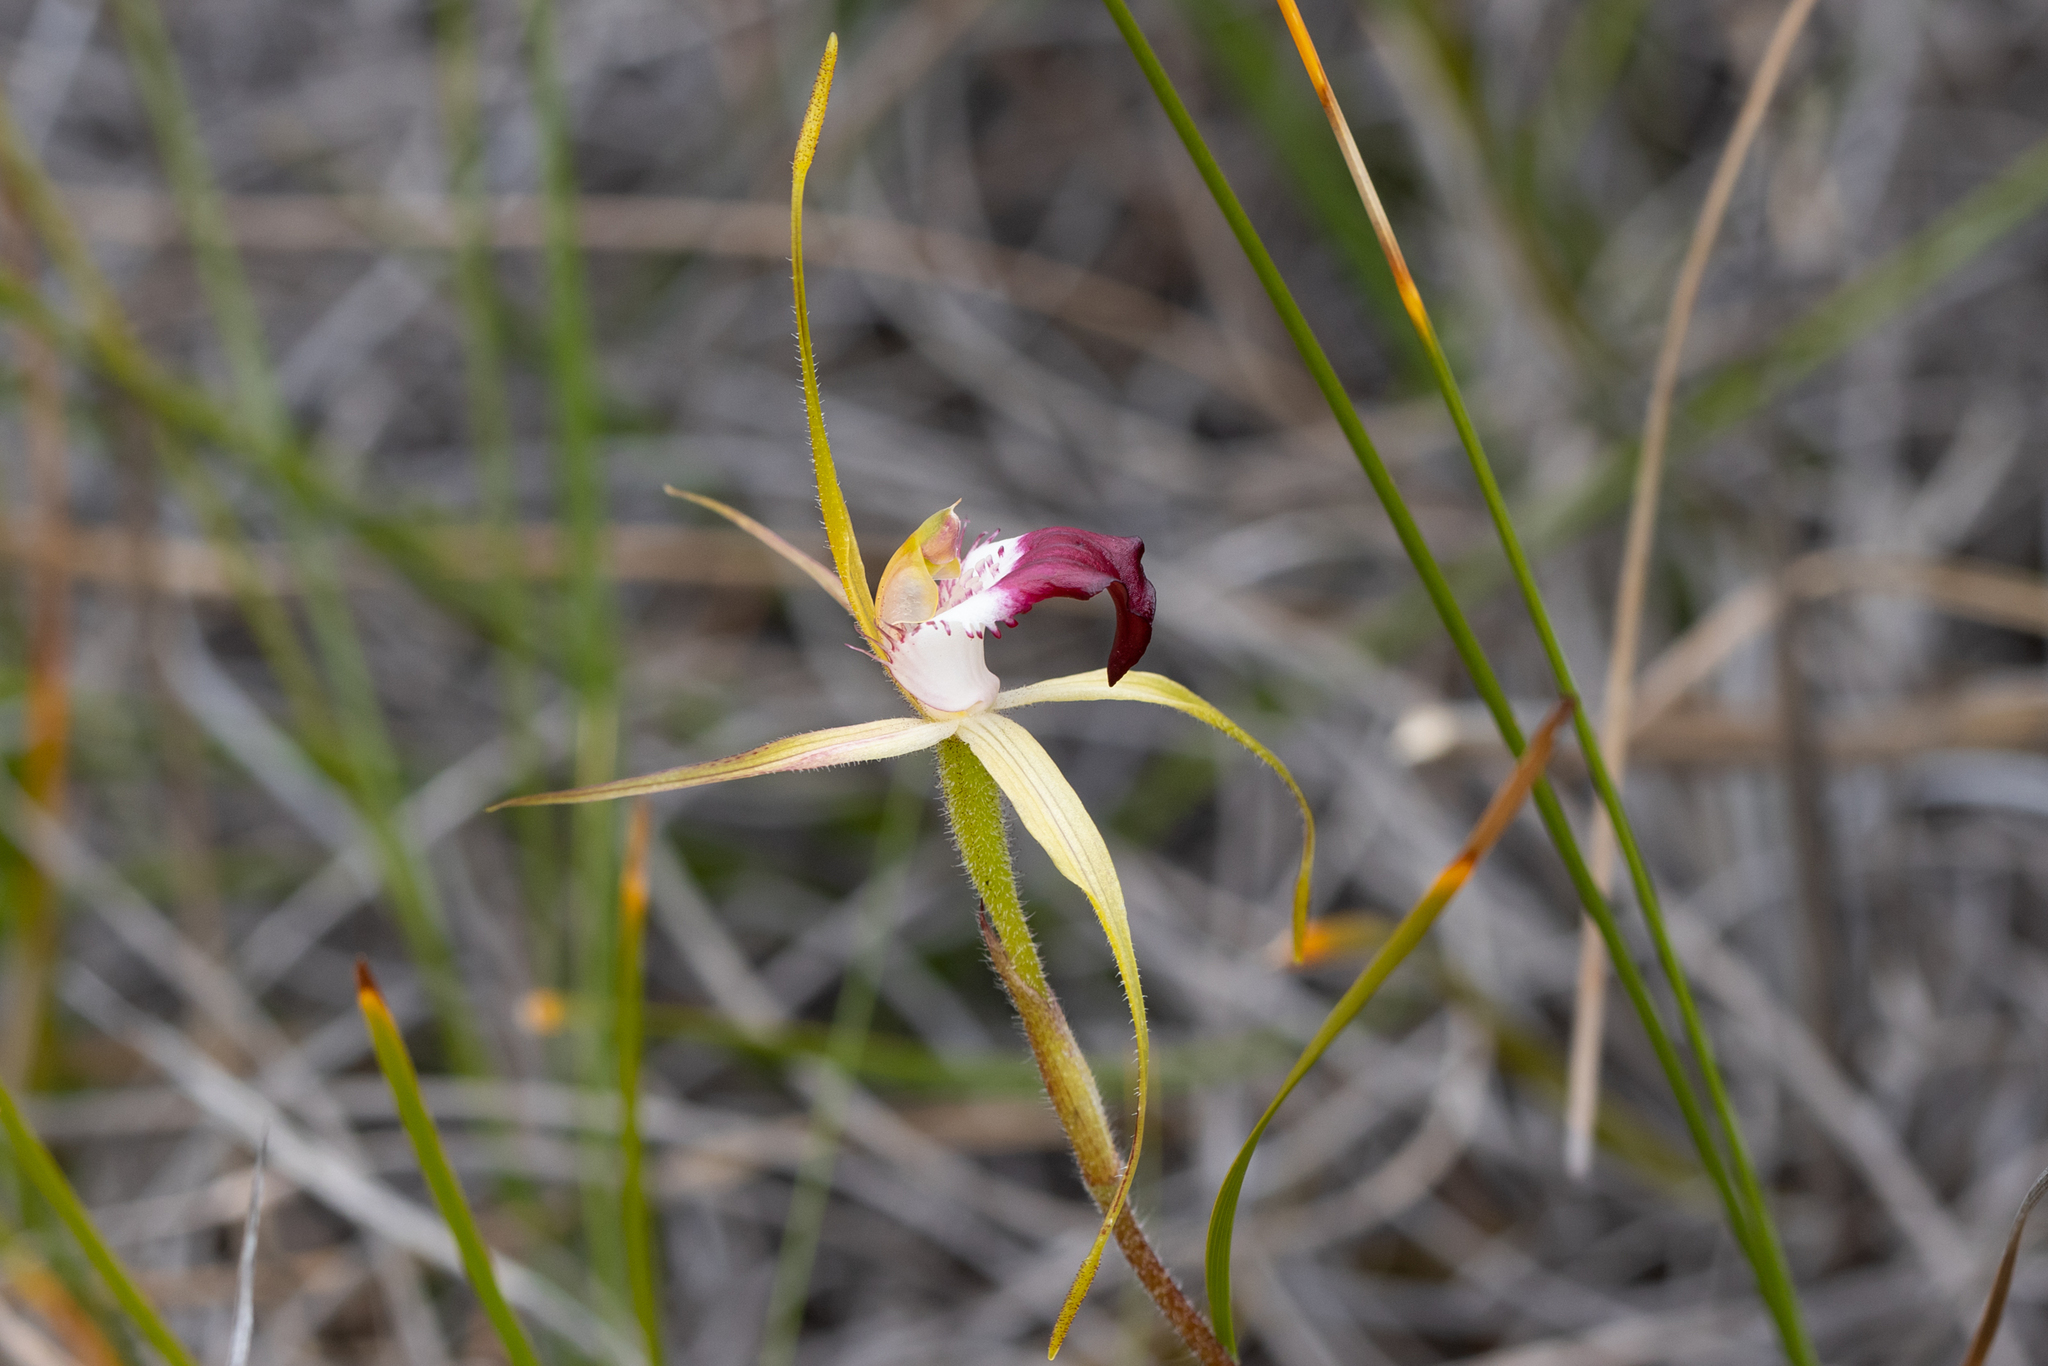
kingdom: Plantae
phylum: Tracheophyta
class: Liliopsida
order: Asparagales
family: Orchidaceae
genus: Caladenia
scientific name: Caladenia granitora
